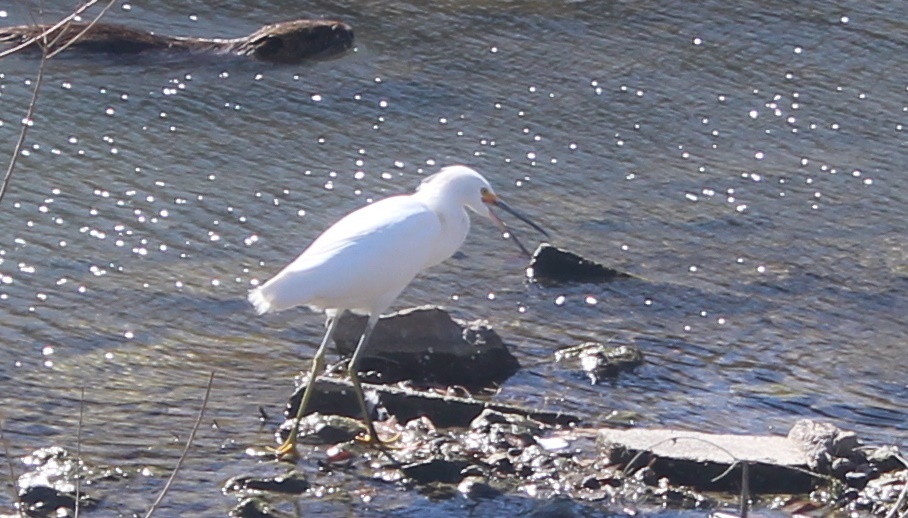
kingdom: Animalia
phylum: Chordata
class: Aves
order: Pelecaniformes
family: Ardeidae
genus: Egretta
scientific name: Egretta thula
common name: Snowy egret
